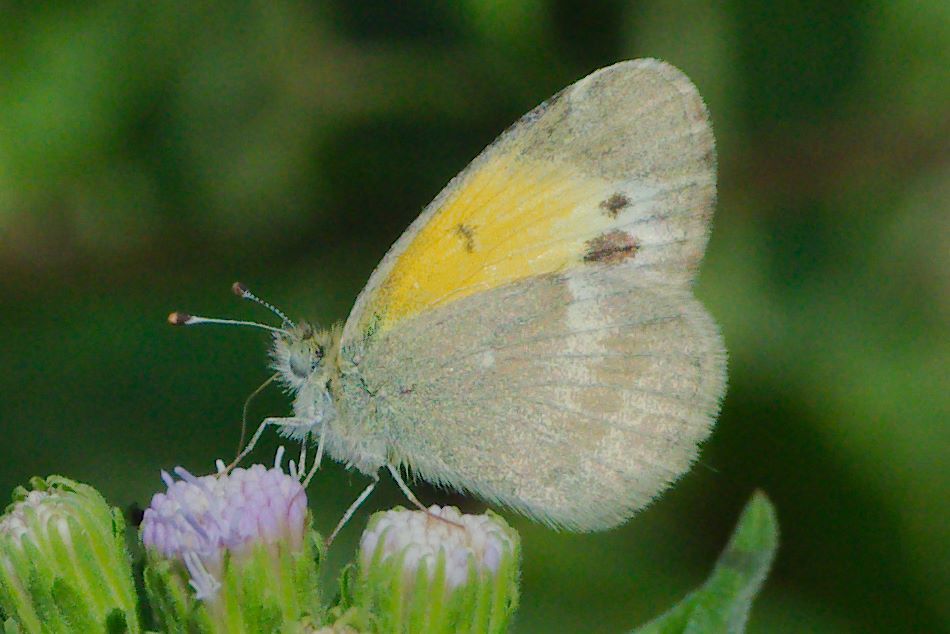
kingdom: Animalia
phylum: Arthropoda
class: Insecta
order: Lepidoptera
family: Pieridae
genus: Nathalis
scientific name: Nathalis iole
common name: Dainty sulphur
